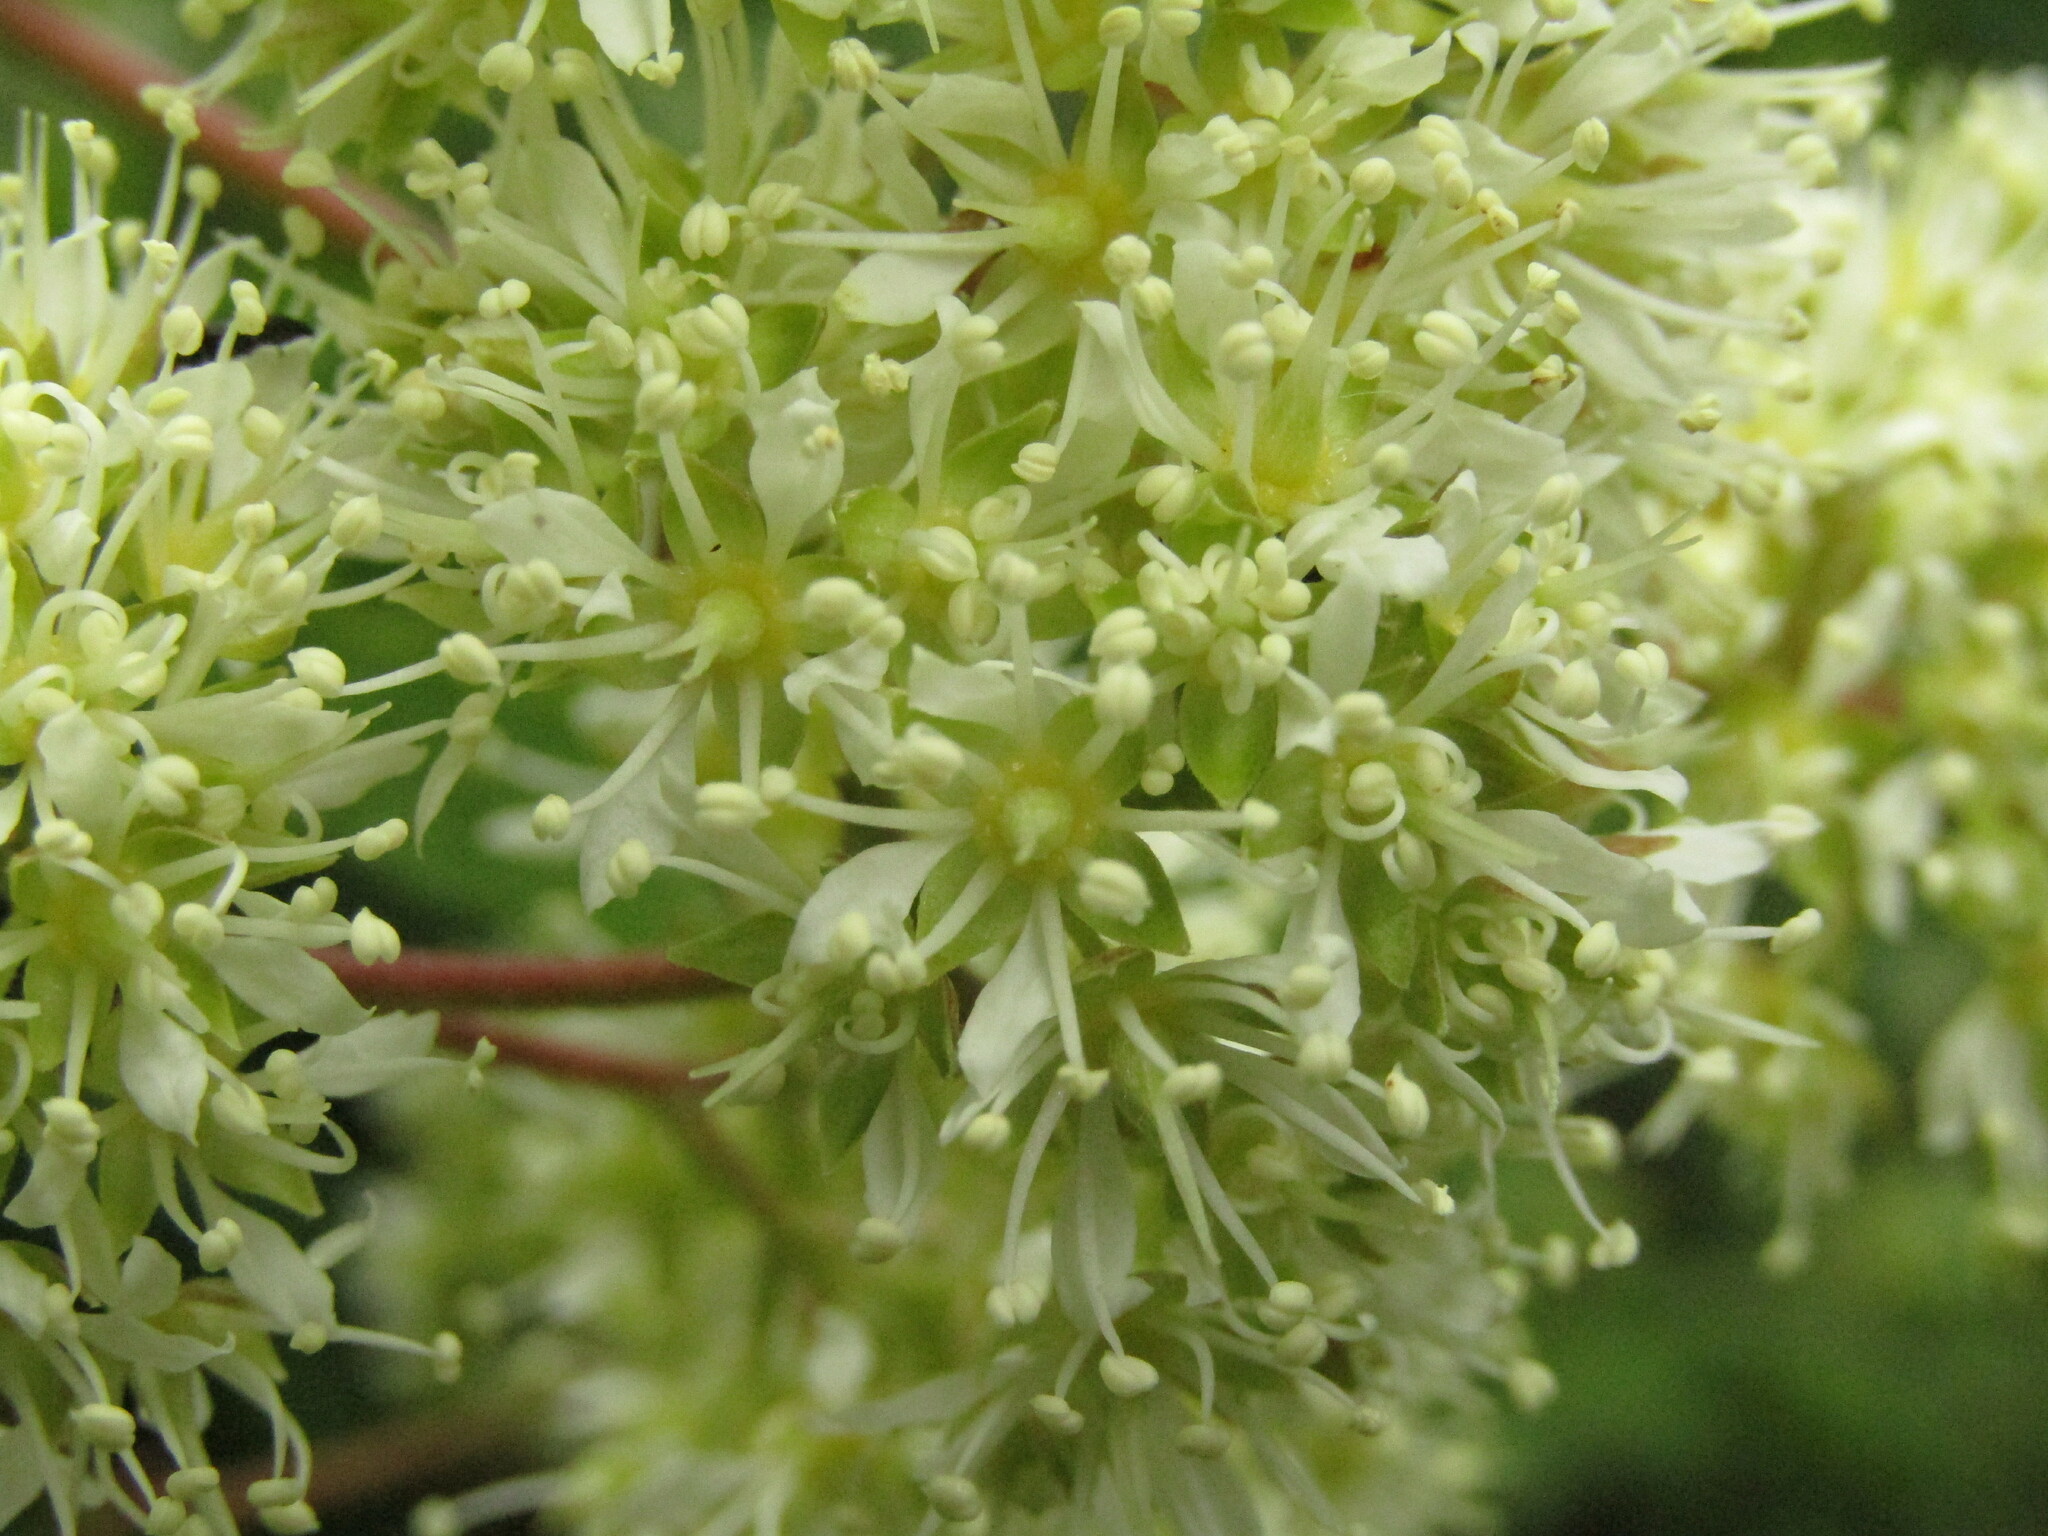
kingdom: Plantae
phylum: Tracheophyta
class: Magnoliopsida
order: Oxalidales
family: Cunoniaceae
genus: Caldcluvia
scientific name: Caldcluvia paniculata
